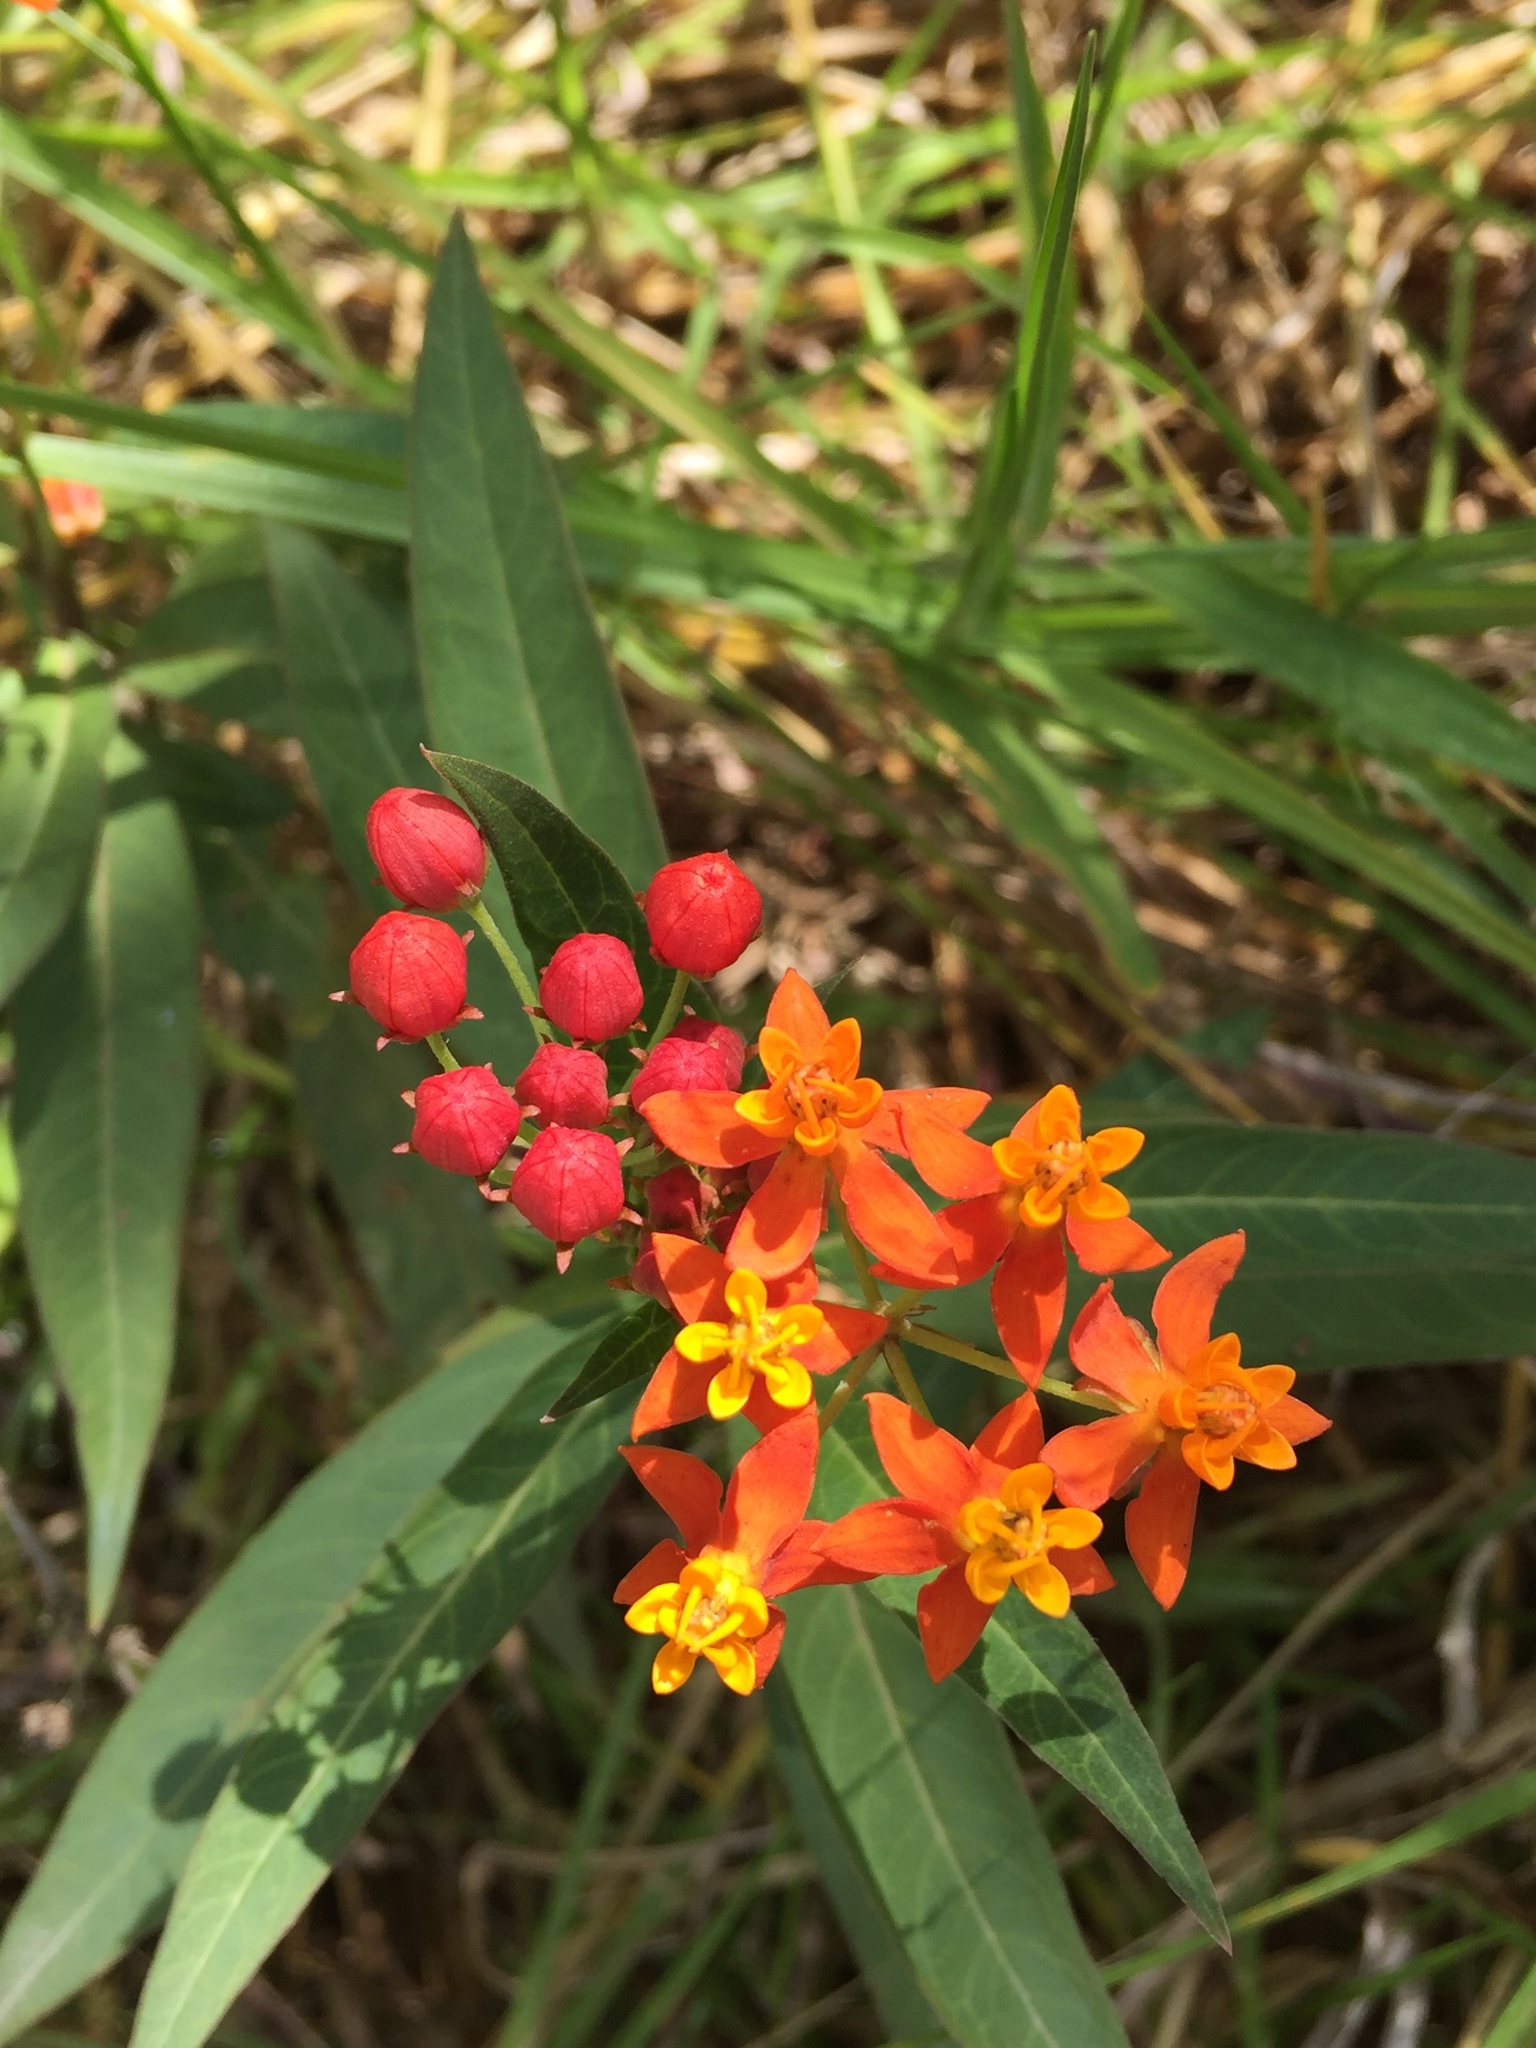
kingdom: Plantae
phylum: Tracheophyta
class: Magnoliopsida
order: Gentianales
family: Apocynaceae
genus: Asclepias
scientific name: Asclepias curassavica
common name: Bloodflower
